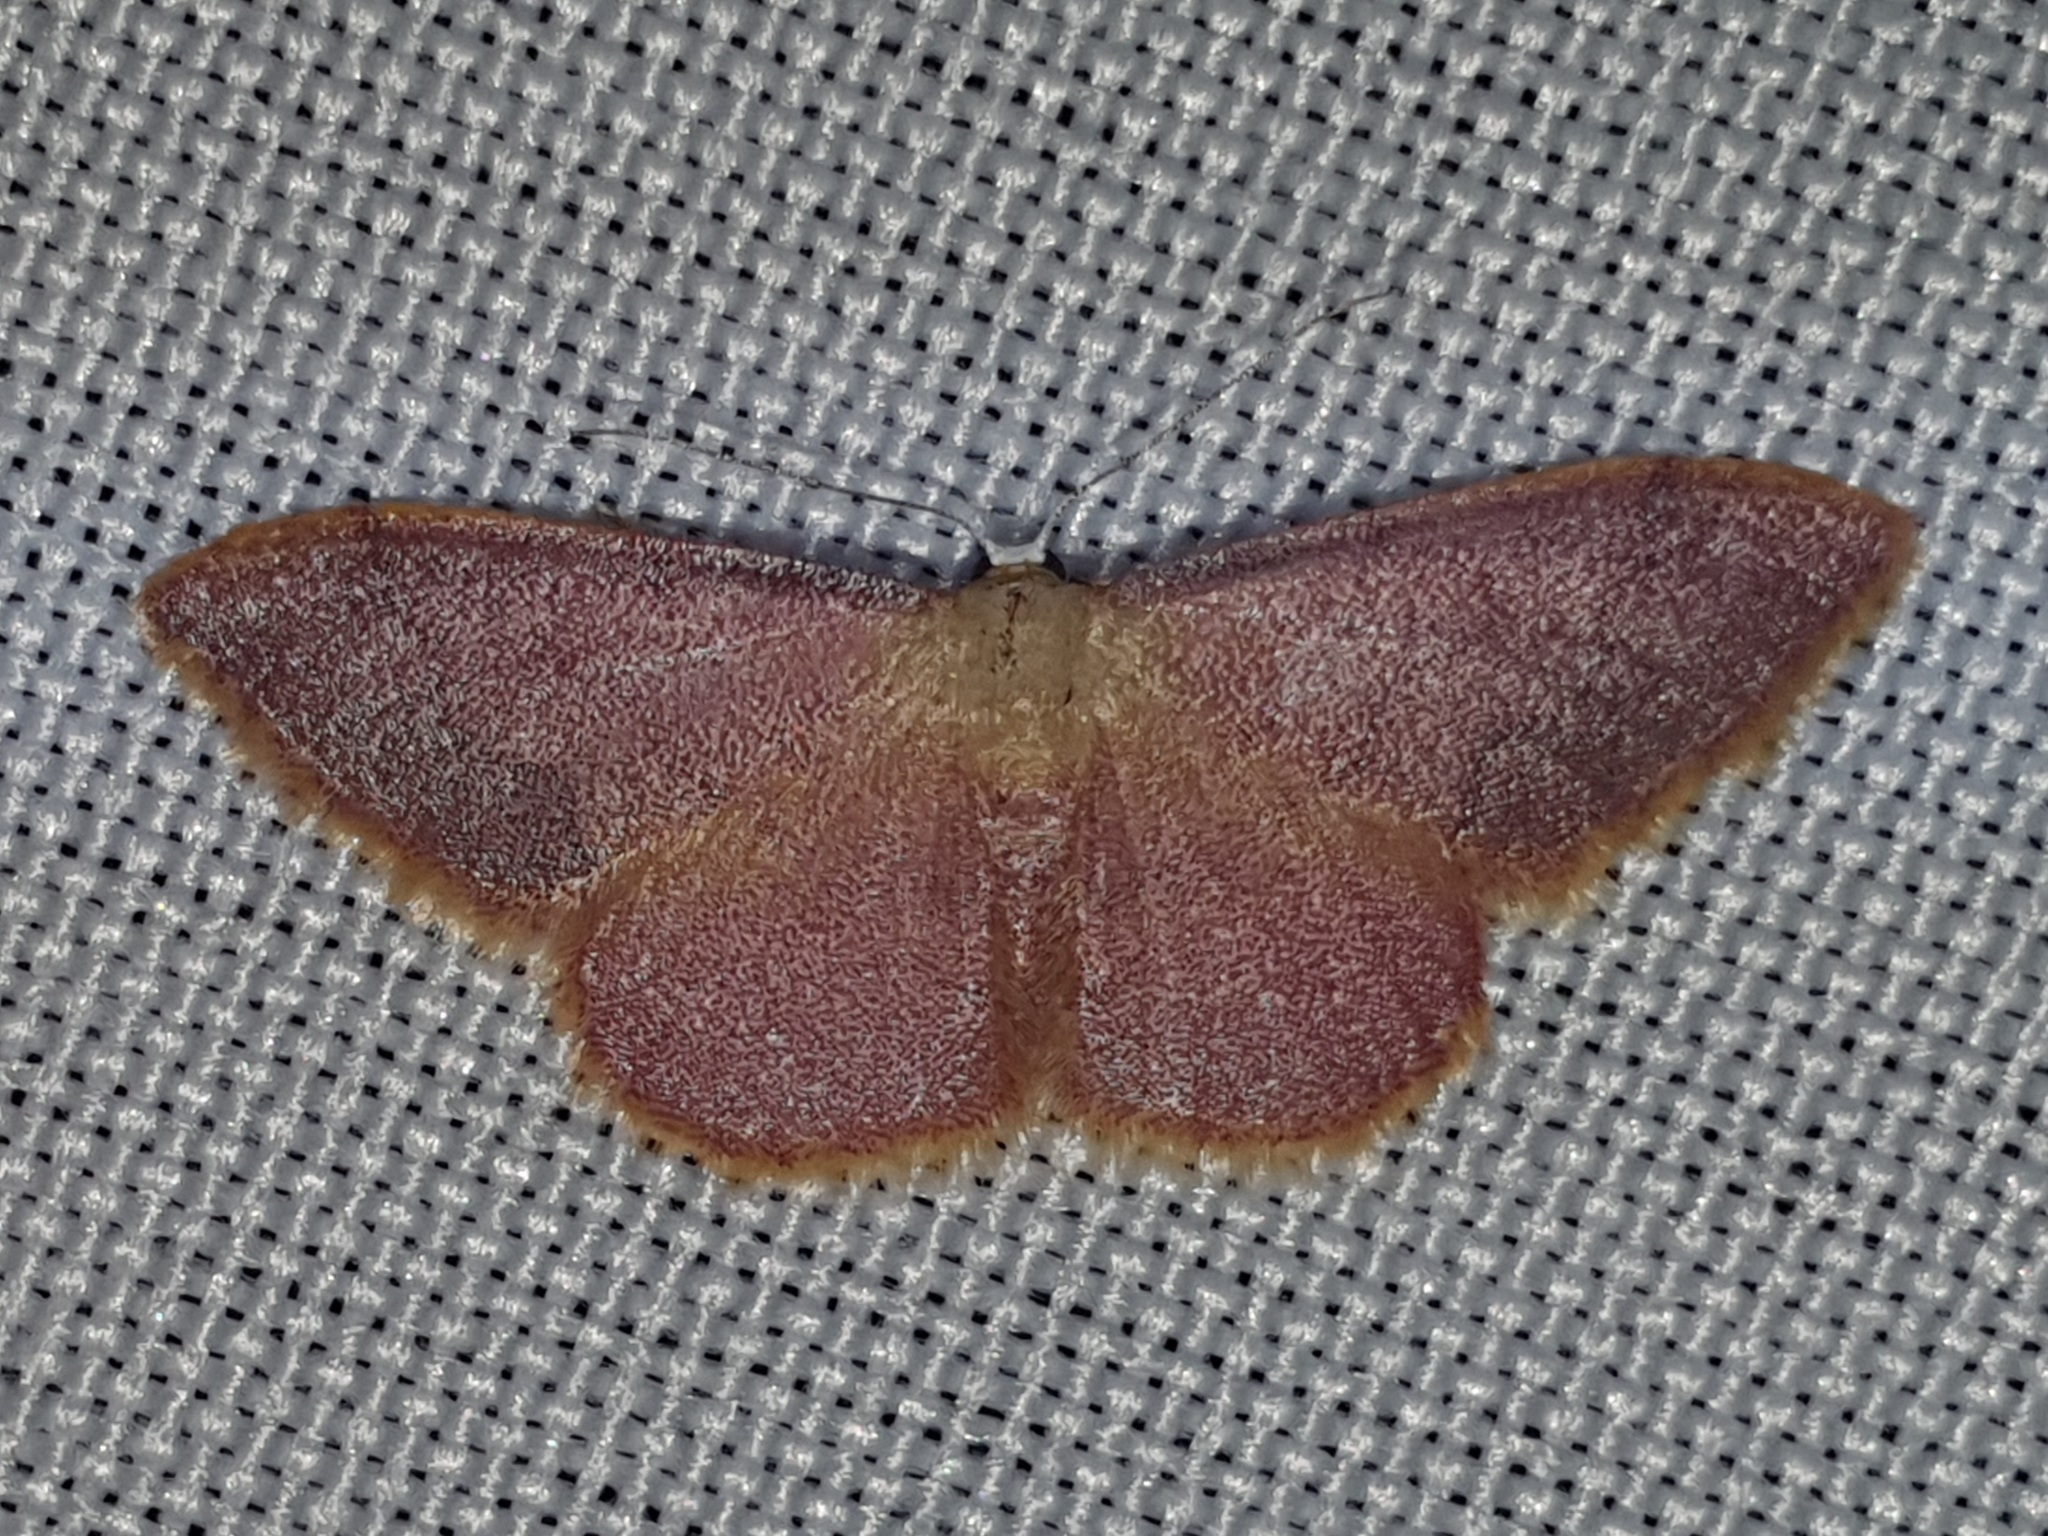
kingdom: Animalia
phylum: Arthropoda
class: Insecta
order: Lepidoptera
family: Geometridae
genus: Idaea
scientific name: Idaea ostrinaria
